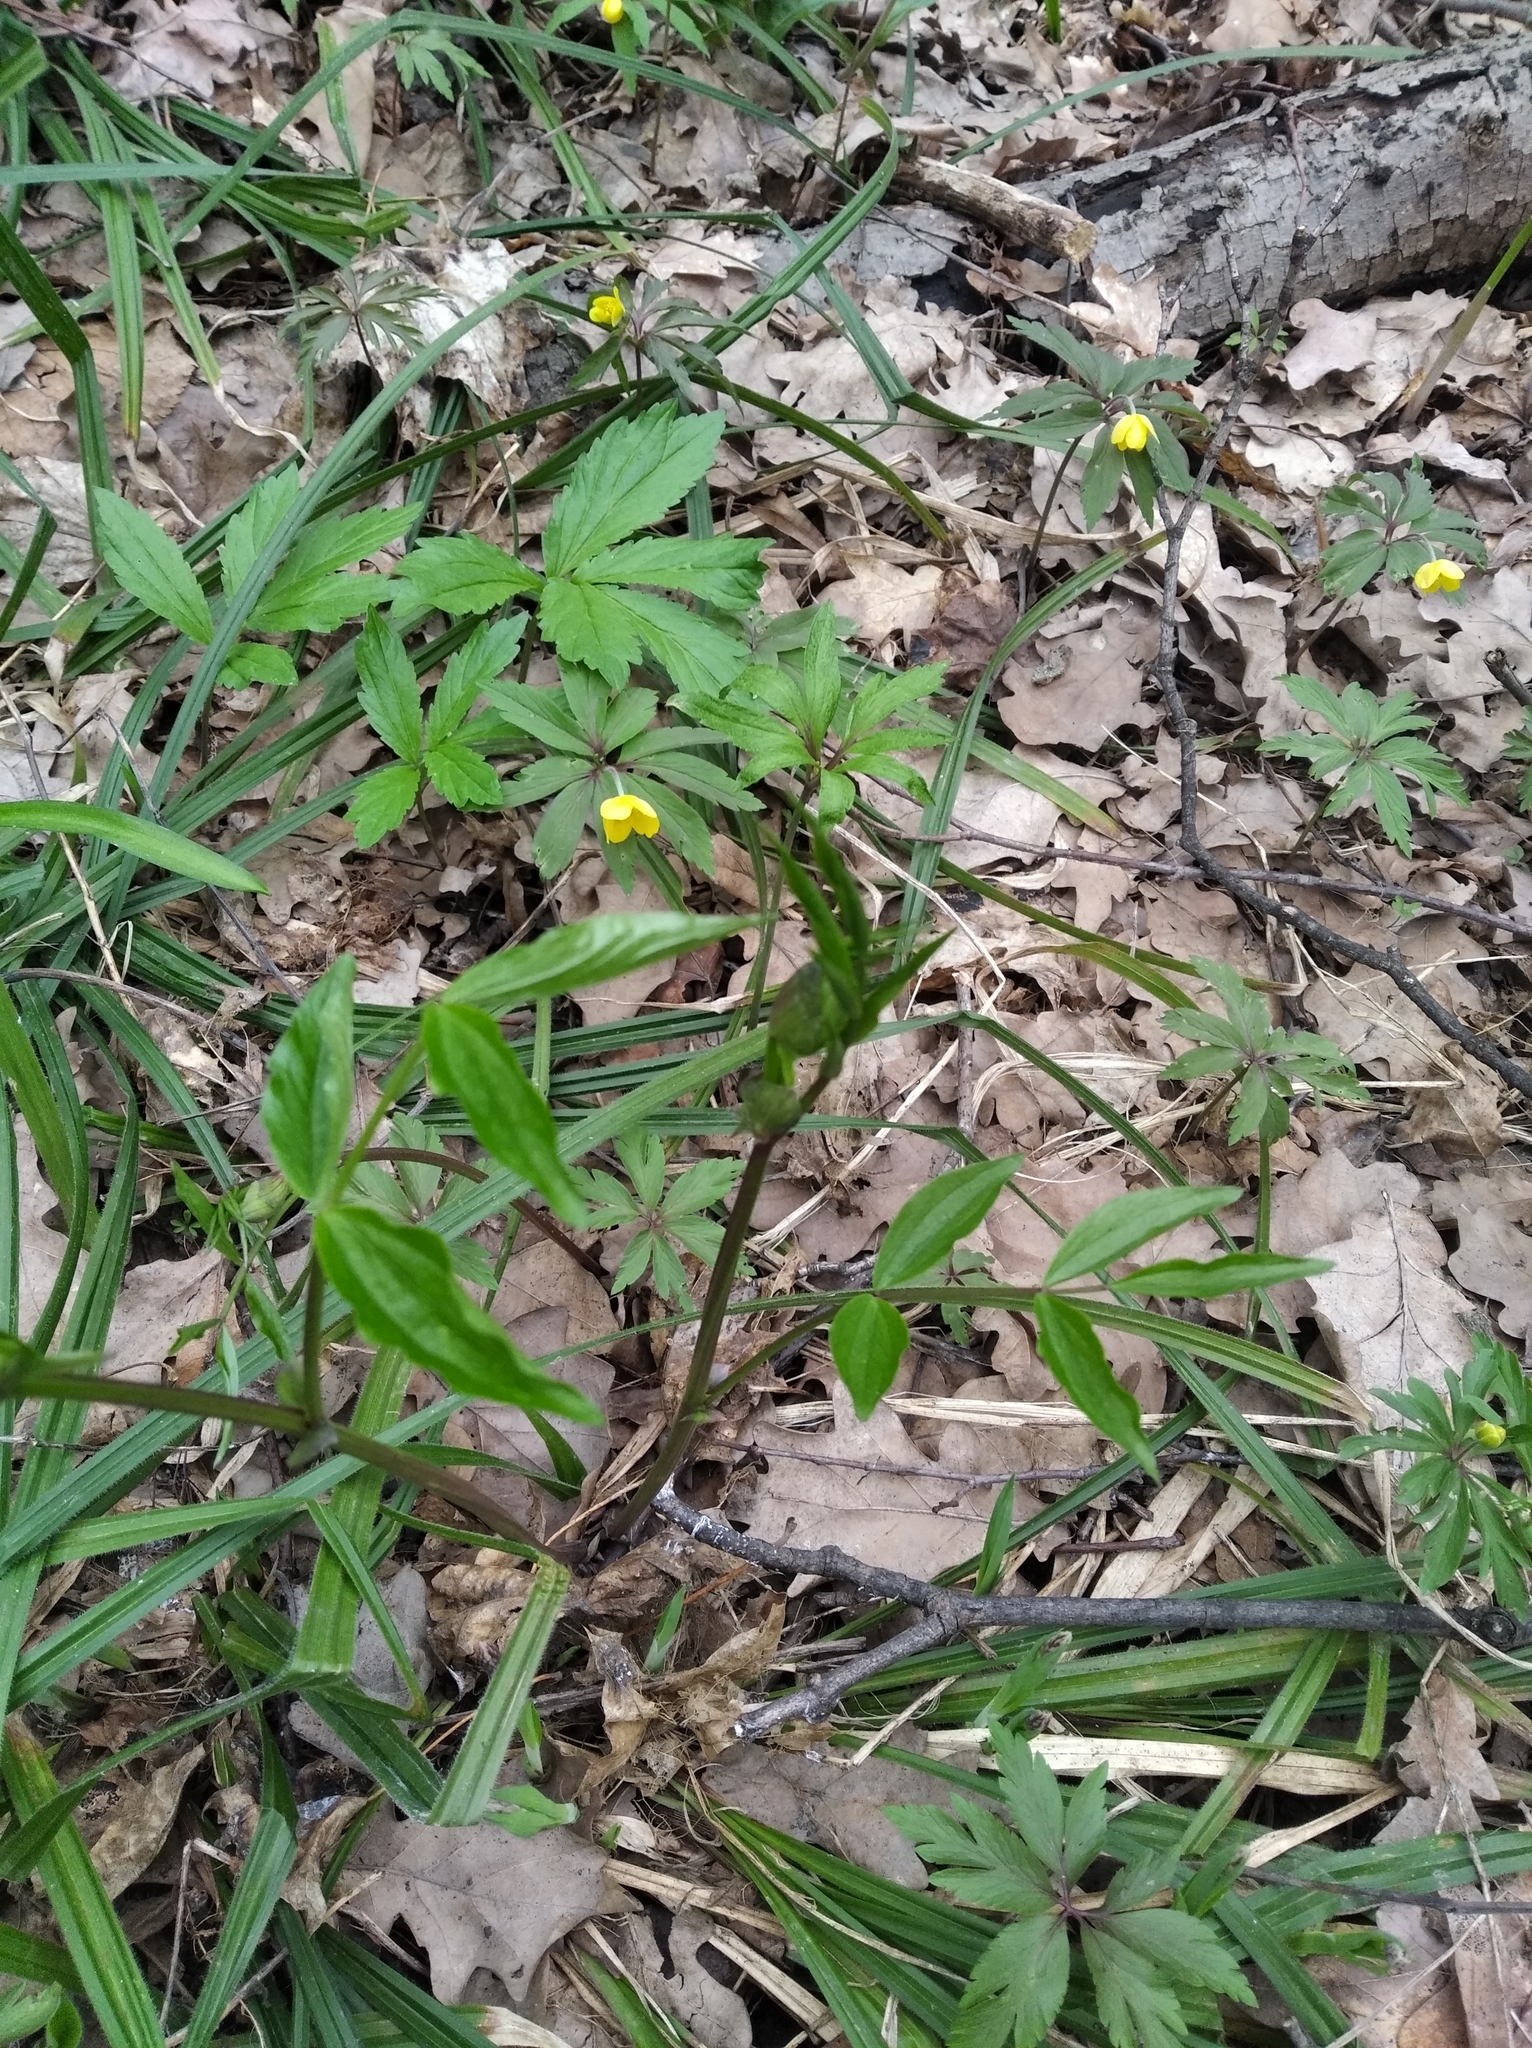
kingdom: Plantae
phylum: Tracheophyta
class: Magnoliopsida
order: Fabales
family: Fabaceae
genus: Lathyrus
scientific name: Lathyrus vernus
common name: Spring pea
